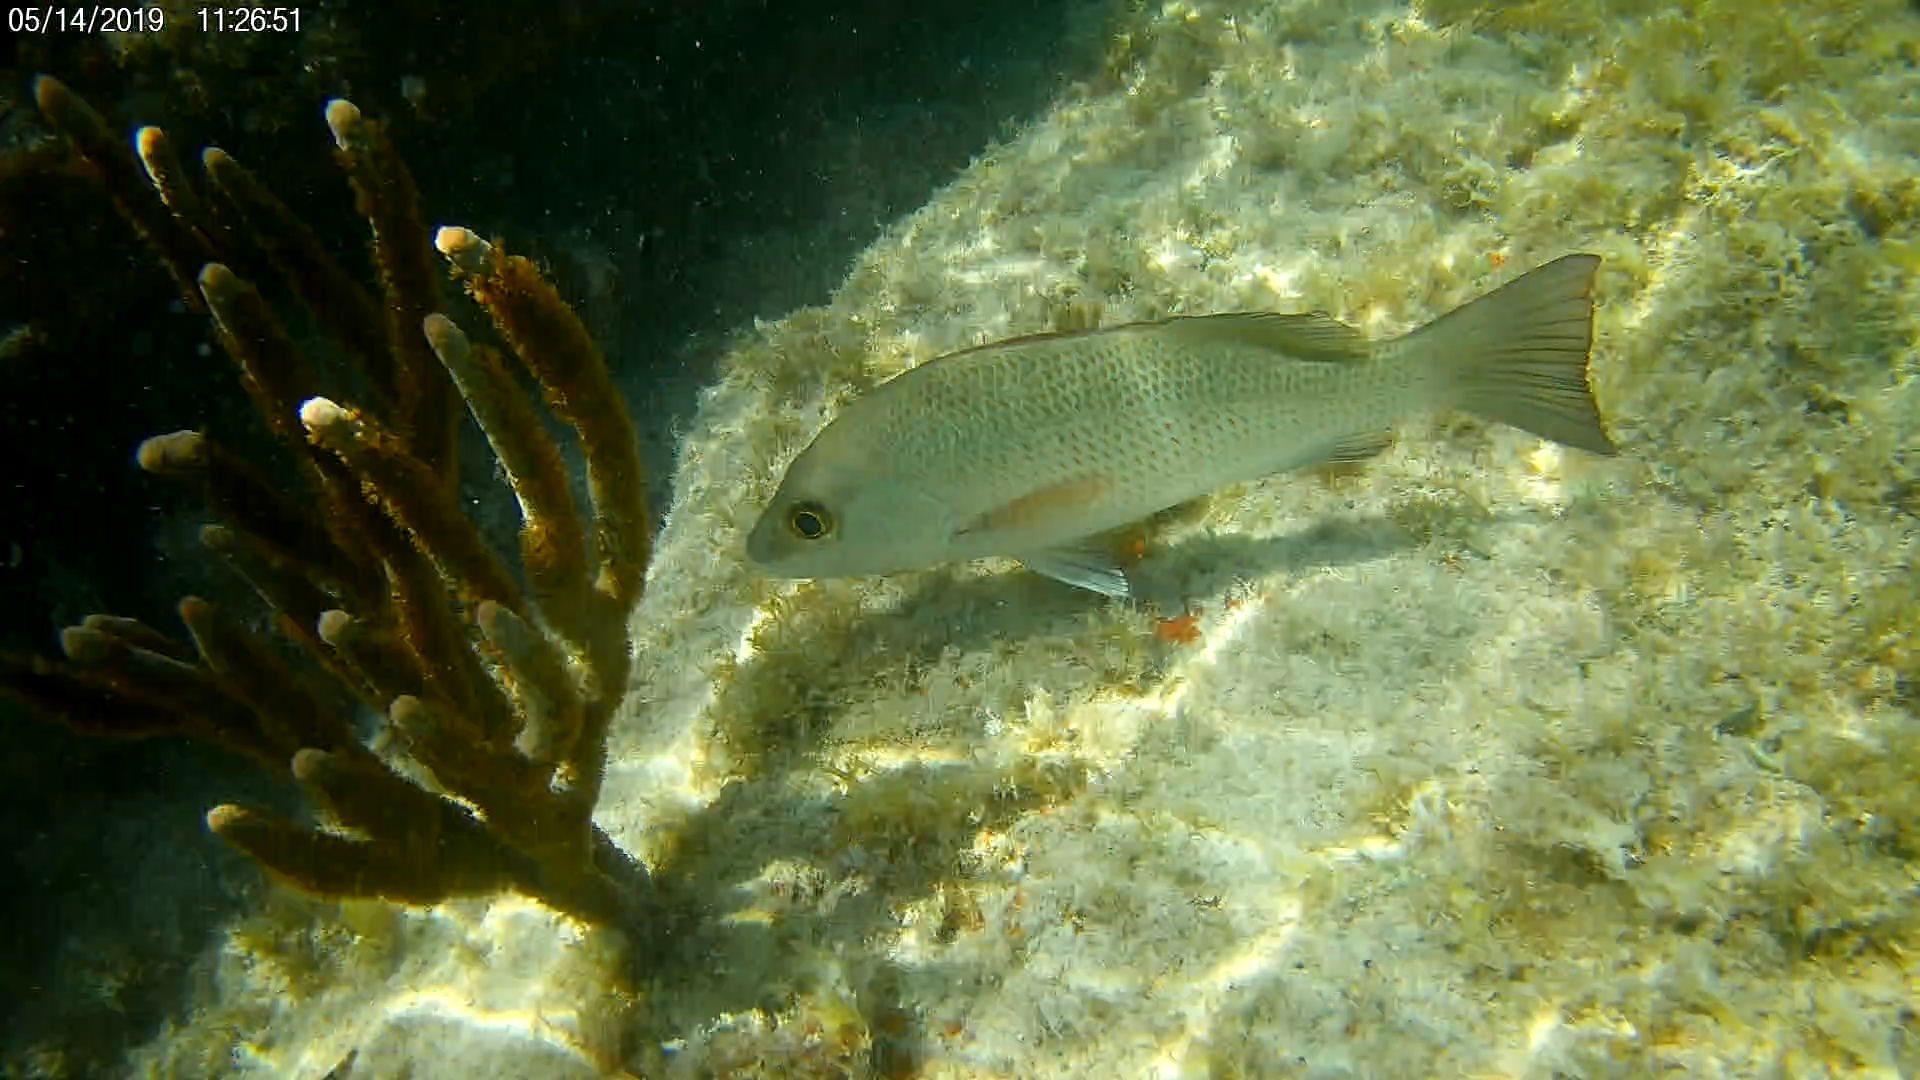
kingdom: Animalia
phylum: Chordata
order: Perciformes
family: Lutjanidae
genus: Lutjanus
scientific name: Lutjanus griseus
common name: Gray snapper
